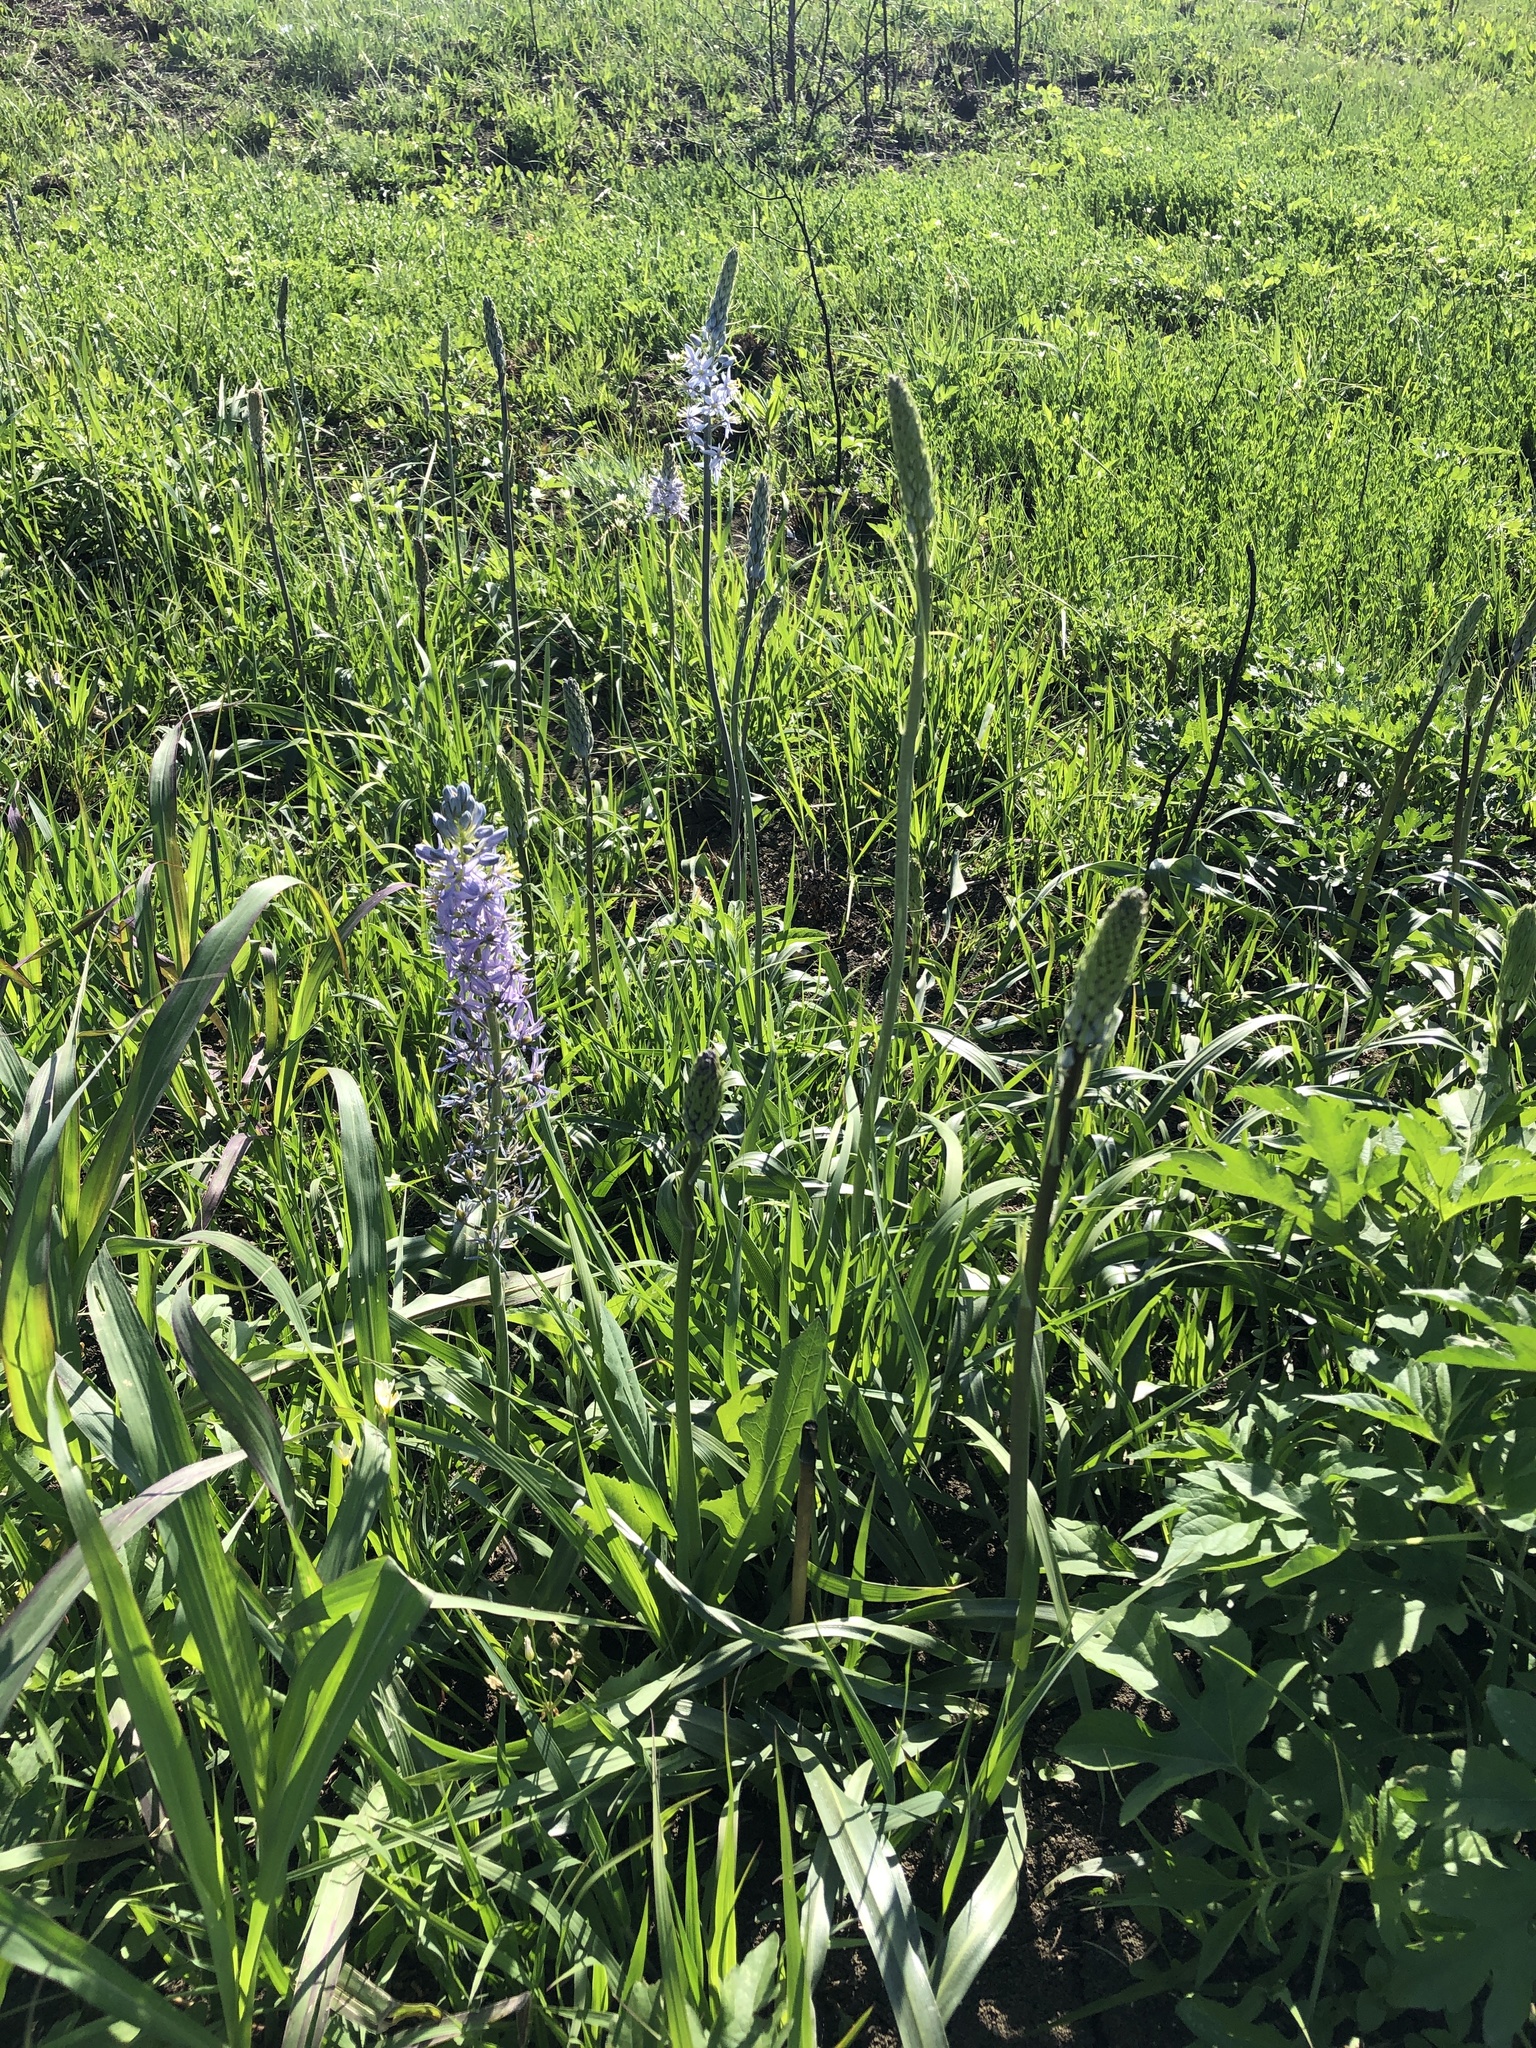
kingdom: Plantae
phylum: Tracheophyta
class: Liliopsida
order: Asparagales
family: Asparagaceae
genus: Camassia
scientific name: Camassia scilloides
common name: Wild hyacinth
